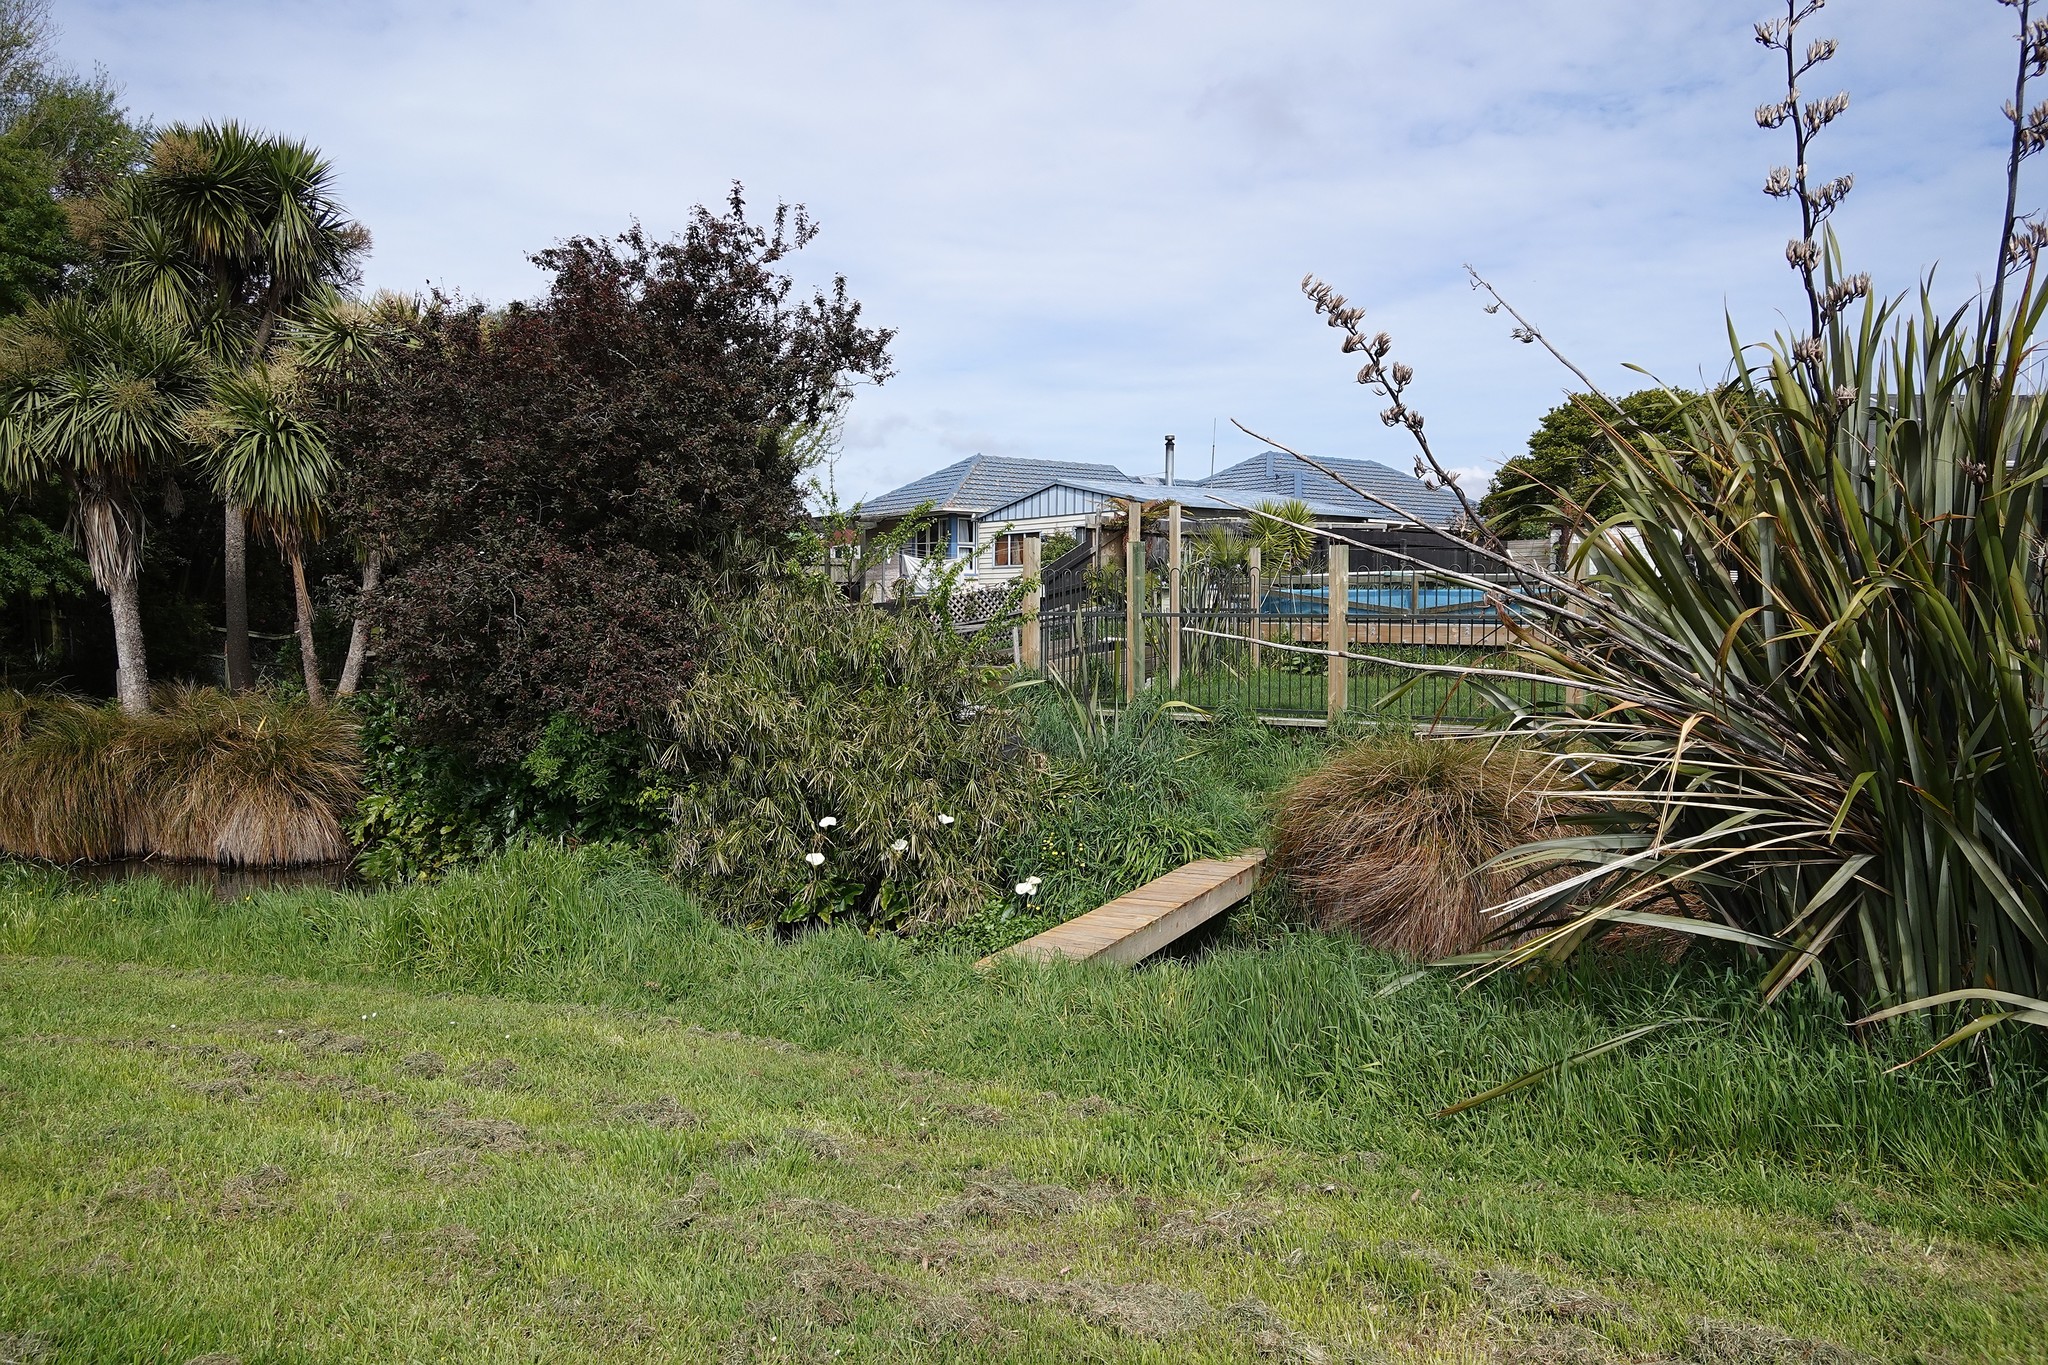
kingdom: Plantae
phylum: Tracheophyta
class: Liliopsida
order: Asparagales
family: Asphodelaceae
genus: Phormium
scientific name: Phormium tenax
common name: New zealand flax
